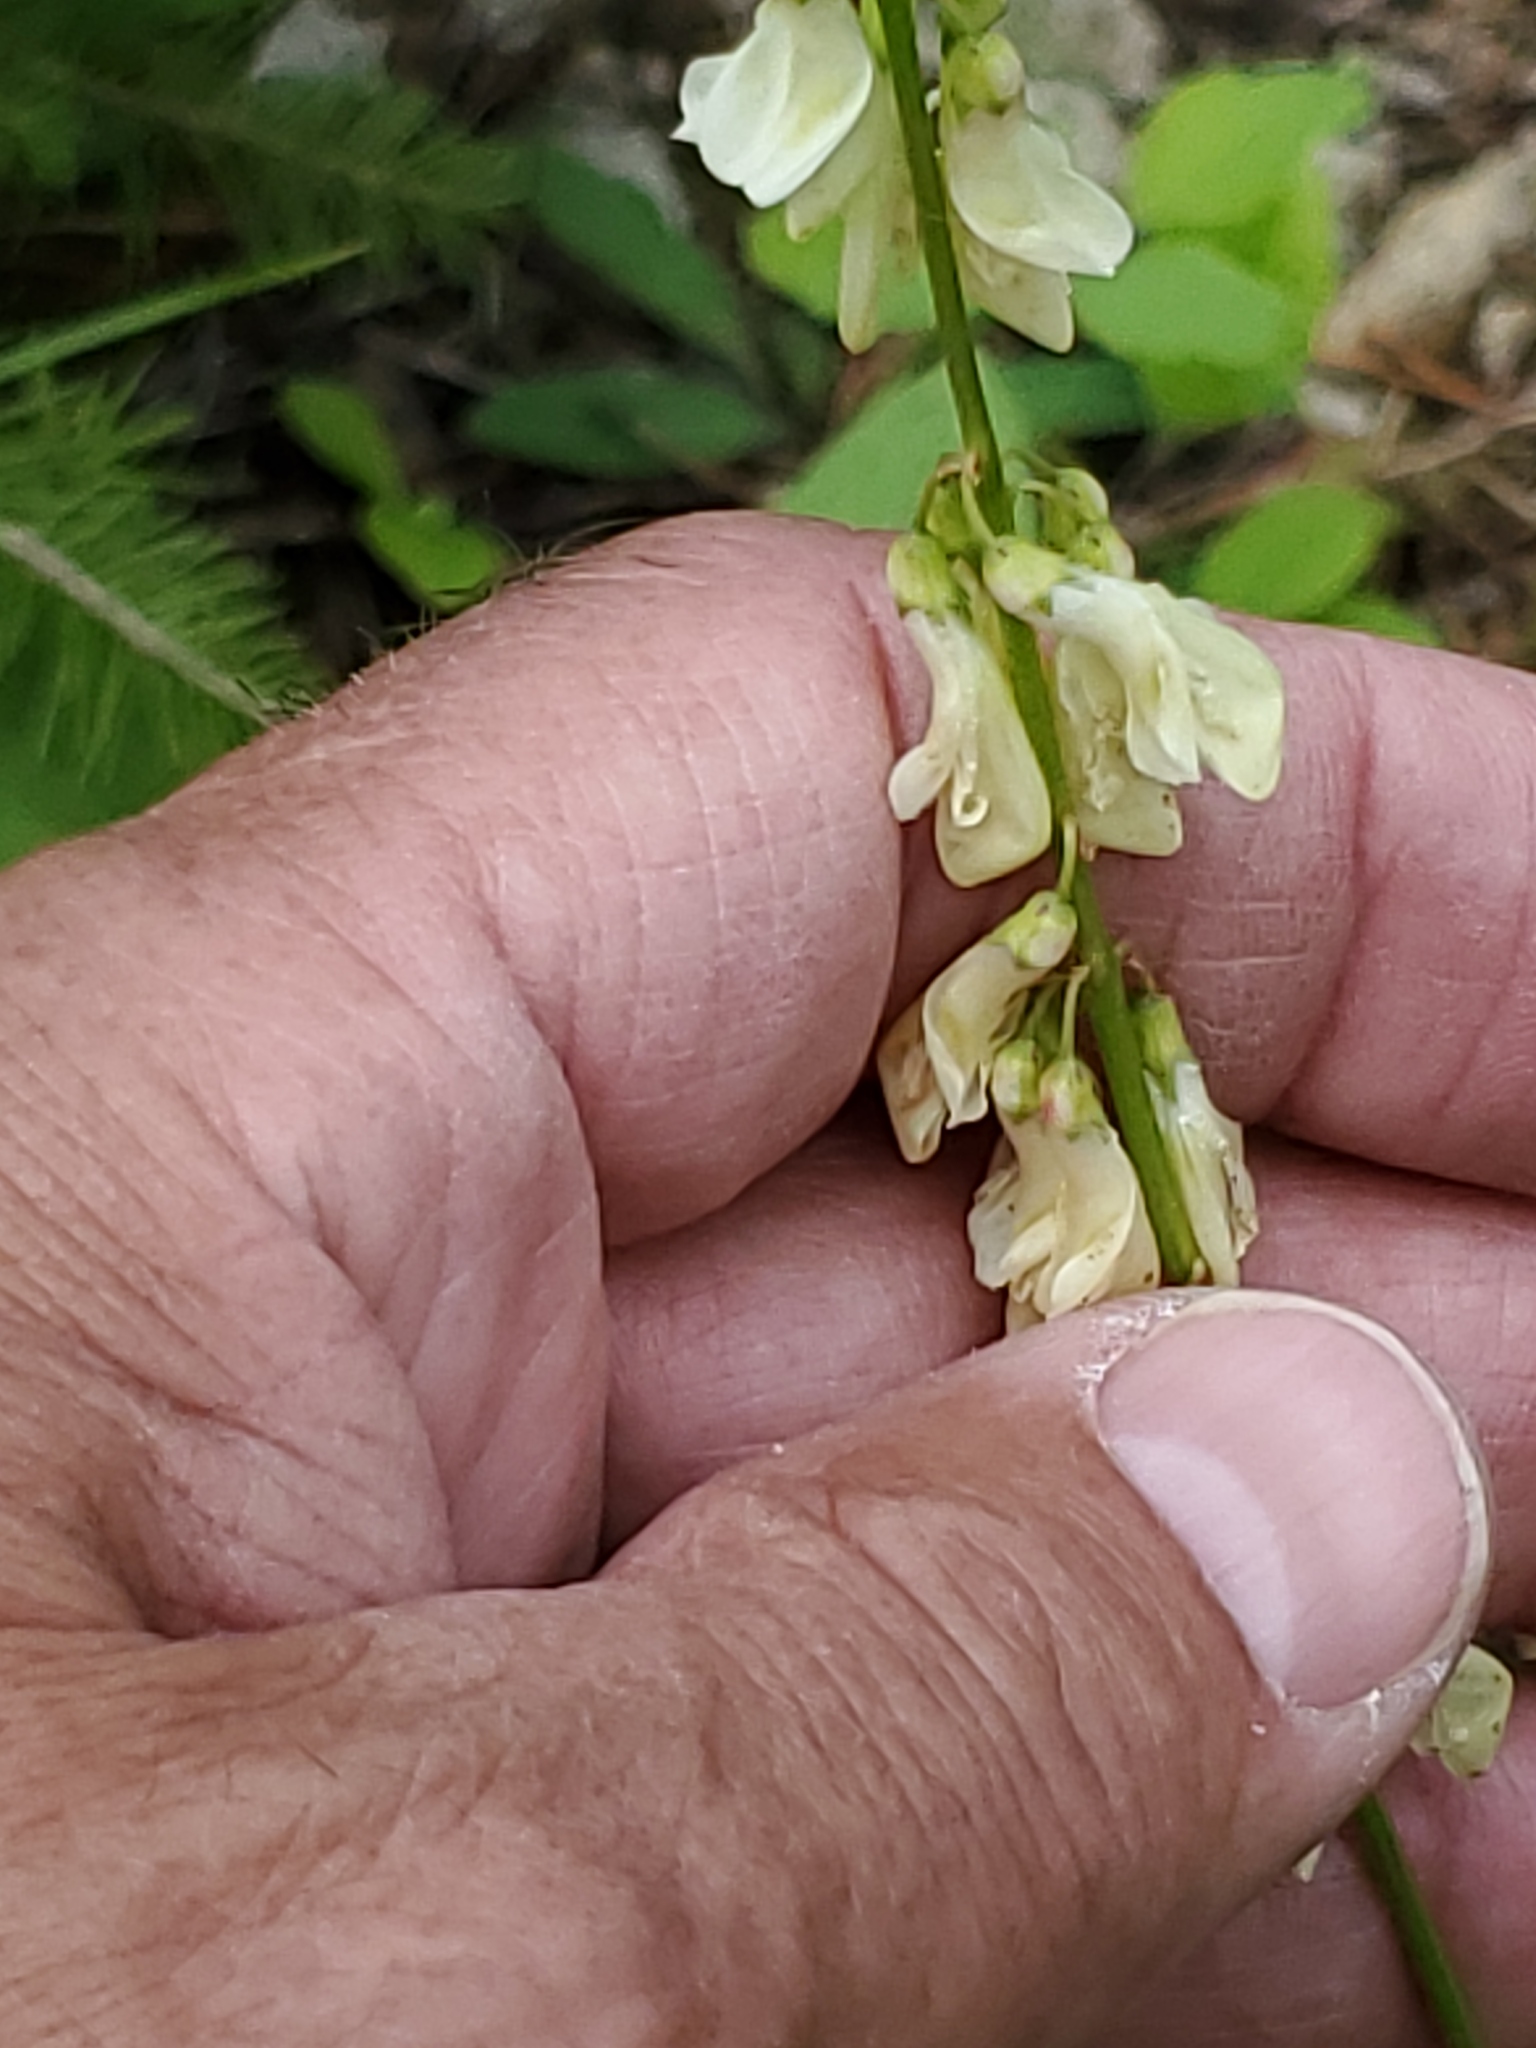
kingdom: Plantae
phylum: Tracheophyta
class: Magnoliopsida
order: Fabales
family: Fabaceae
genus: Hedysarum
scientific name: Hedysarum sulphurescens
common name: Sulphur hedysarum
